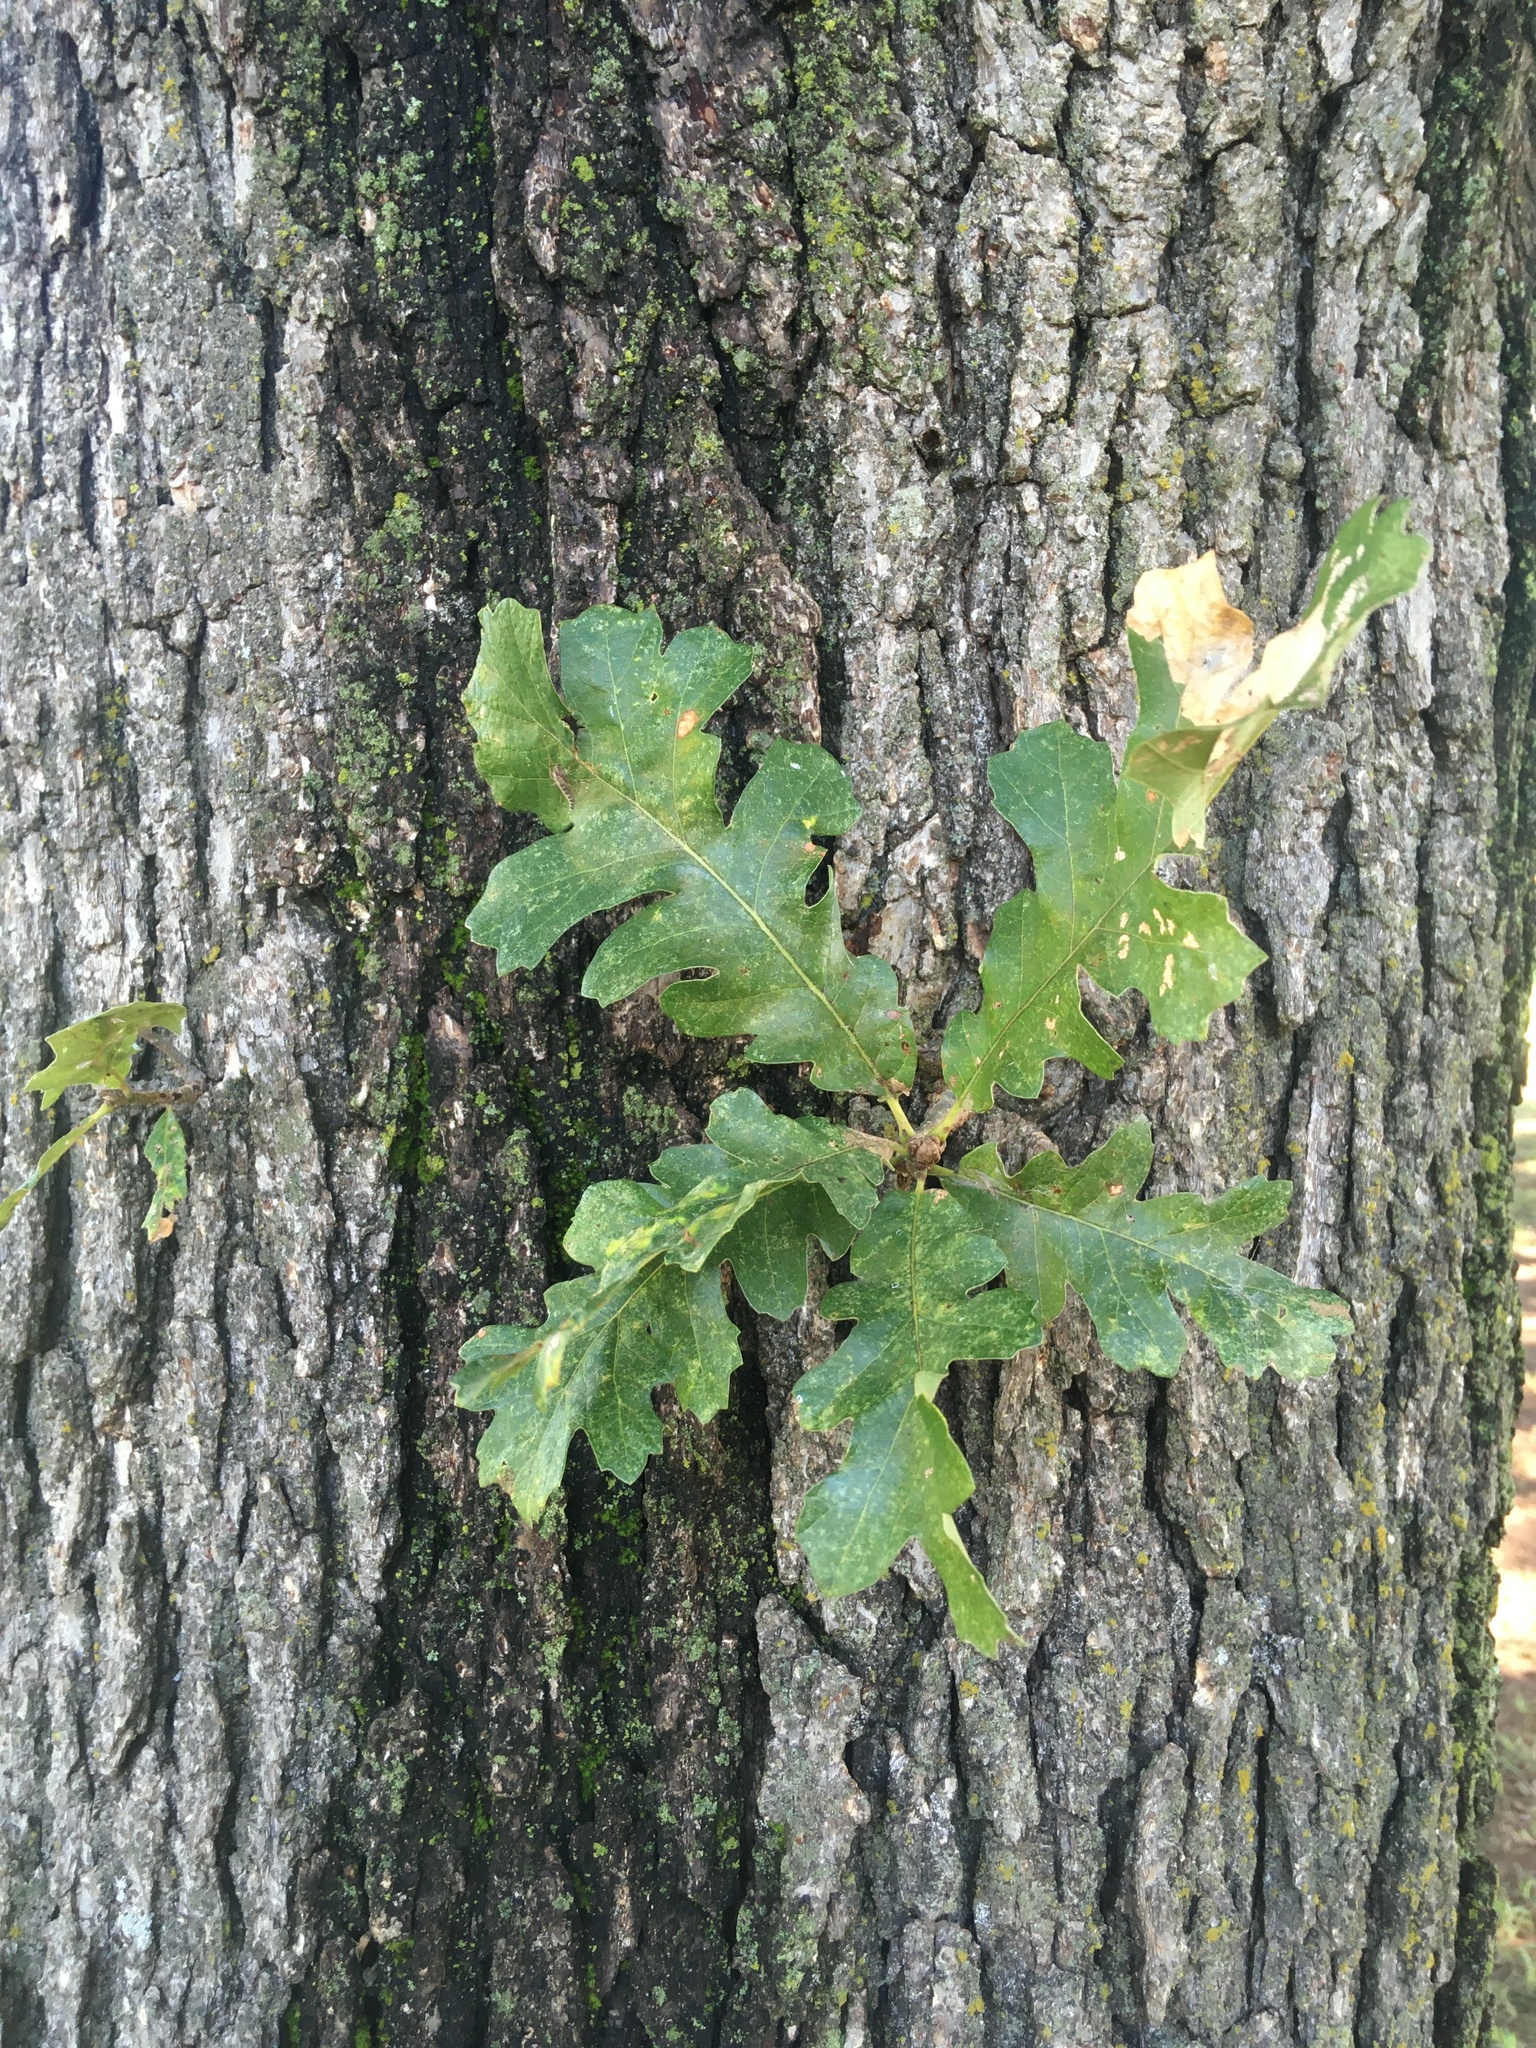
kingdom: Plantae
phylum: Tracheophyta
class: Magnoliopsida
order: Fagales
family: Fagaceae
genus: Quercus
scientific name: Quercus macrocarpa
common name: Bur oak
